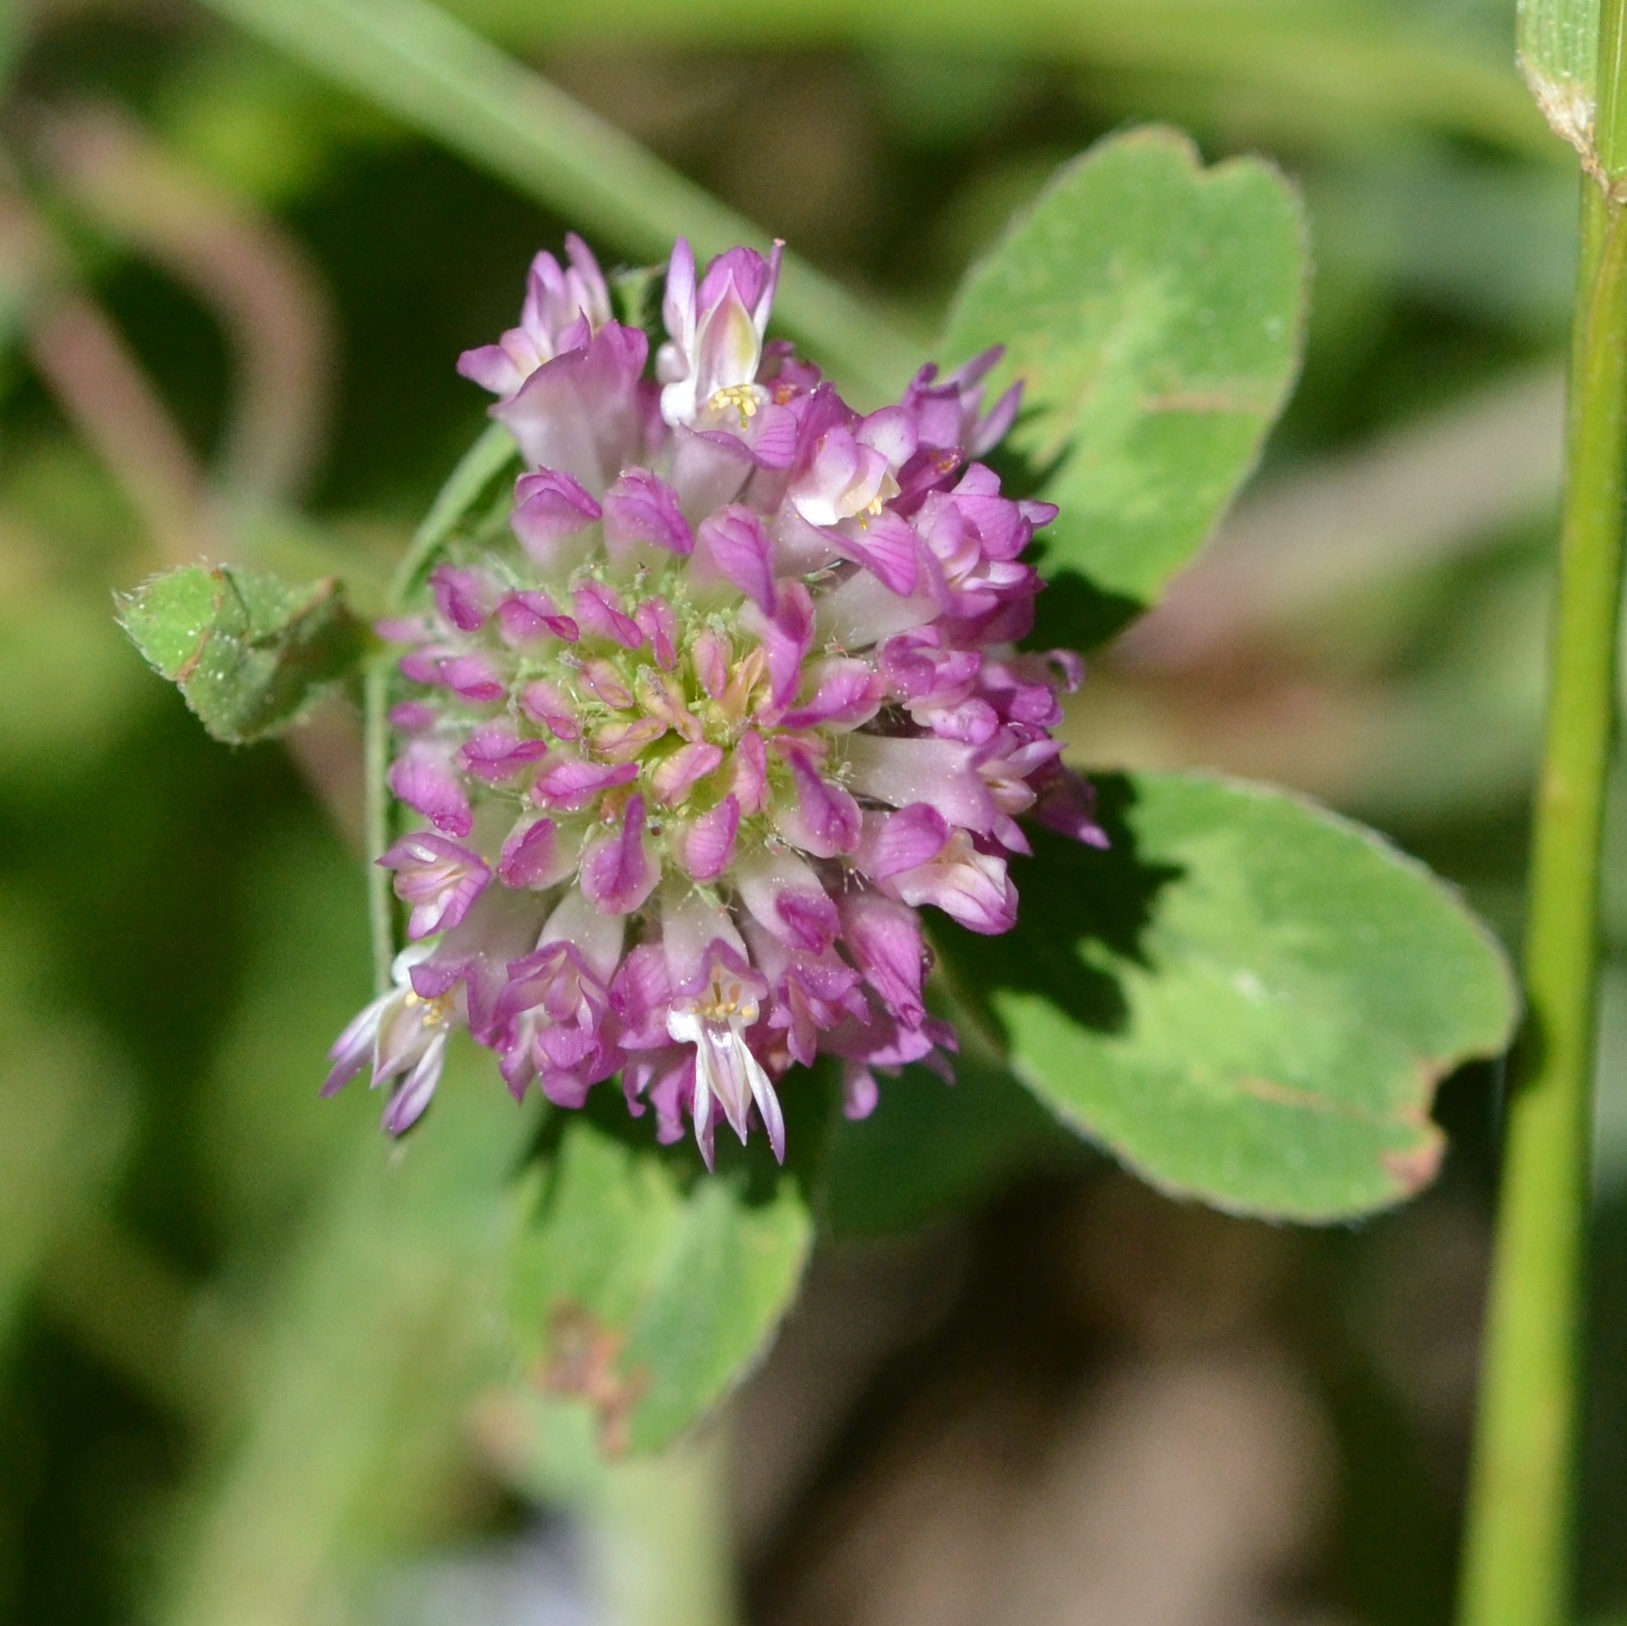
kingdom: Plantae
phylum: Tracheophyta
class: Magnoliopsida
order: Fabales
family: Fabaceae
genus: Trifolium
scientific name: Trifolium pratense
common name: Red clover
